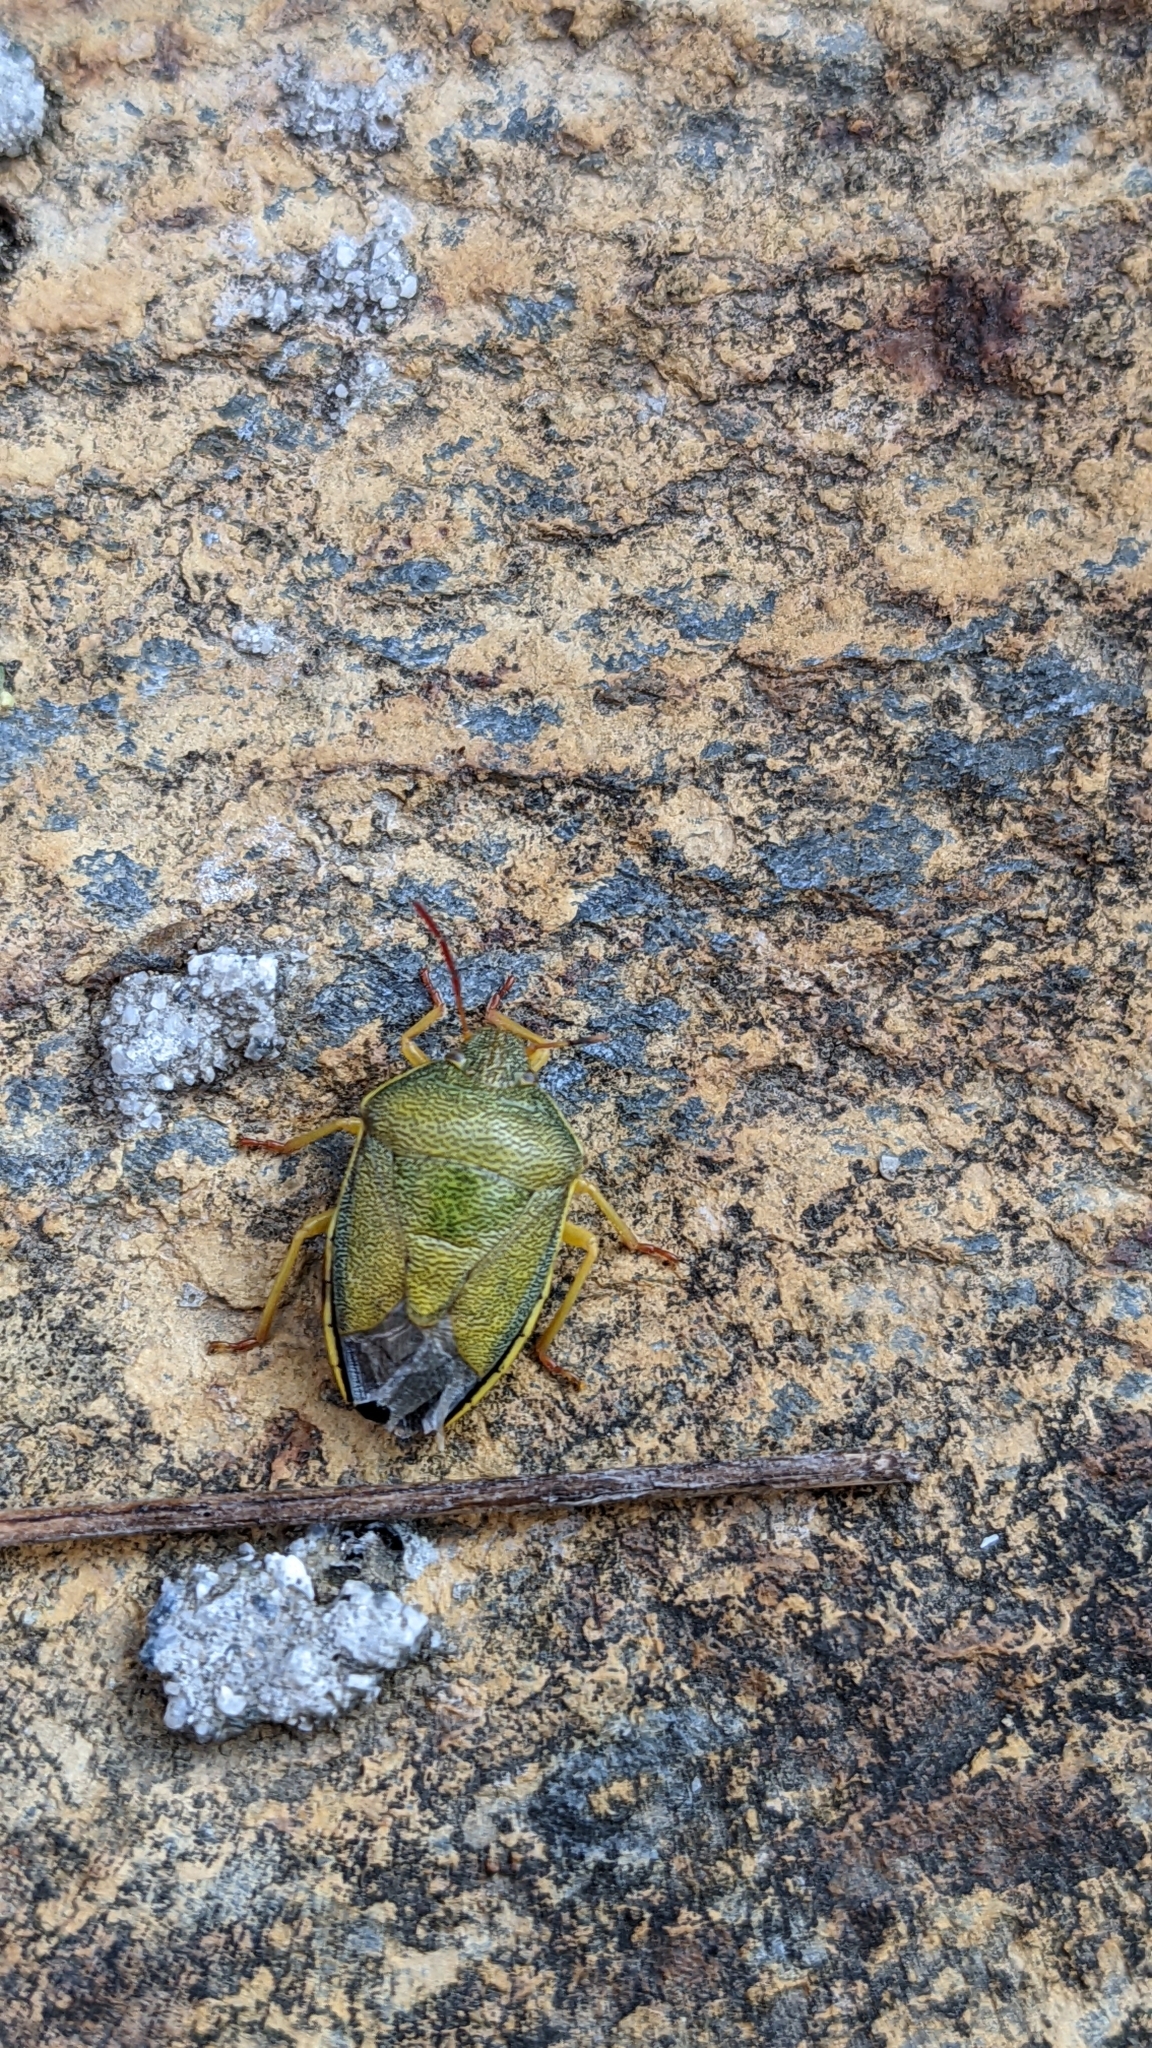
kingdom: Animalia
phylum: Arthropoda
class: Insecta
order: Hemiptera
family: Pentatomidae
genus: Piezodorus
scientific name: Piezodorus lituratus
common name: Stink bug
